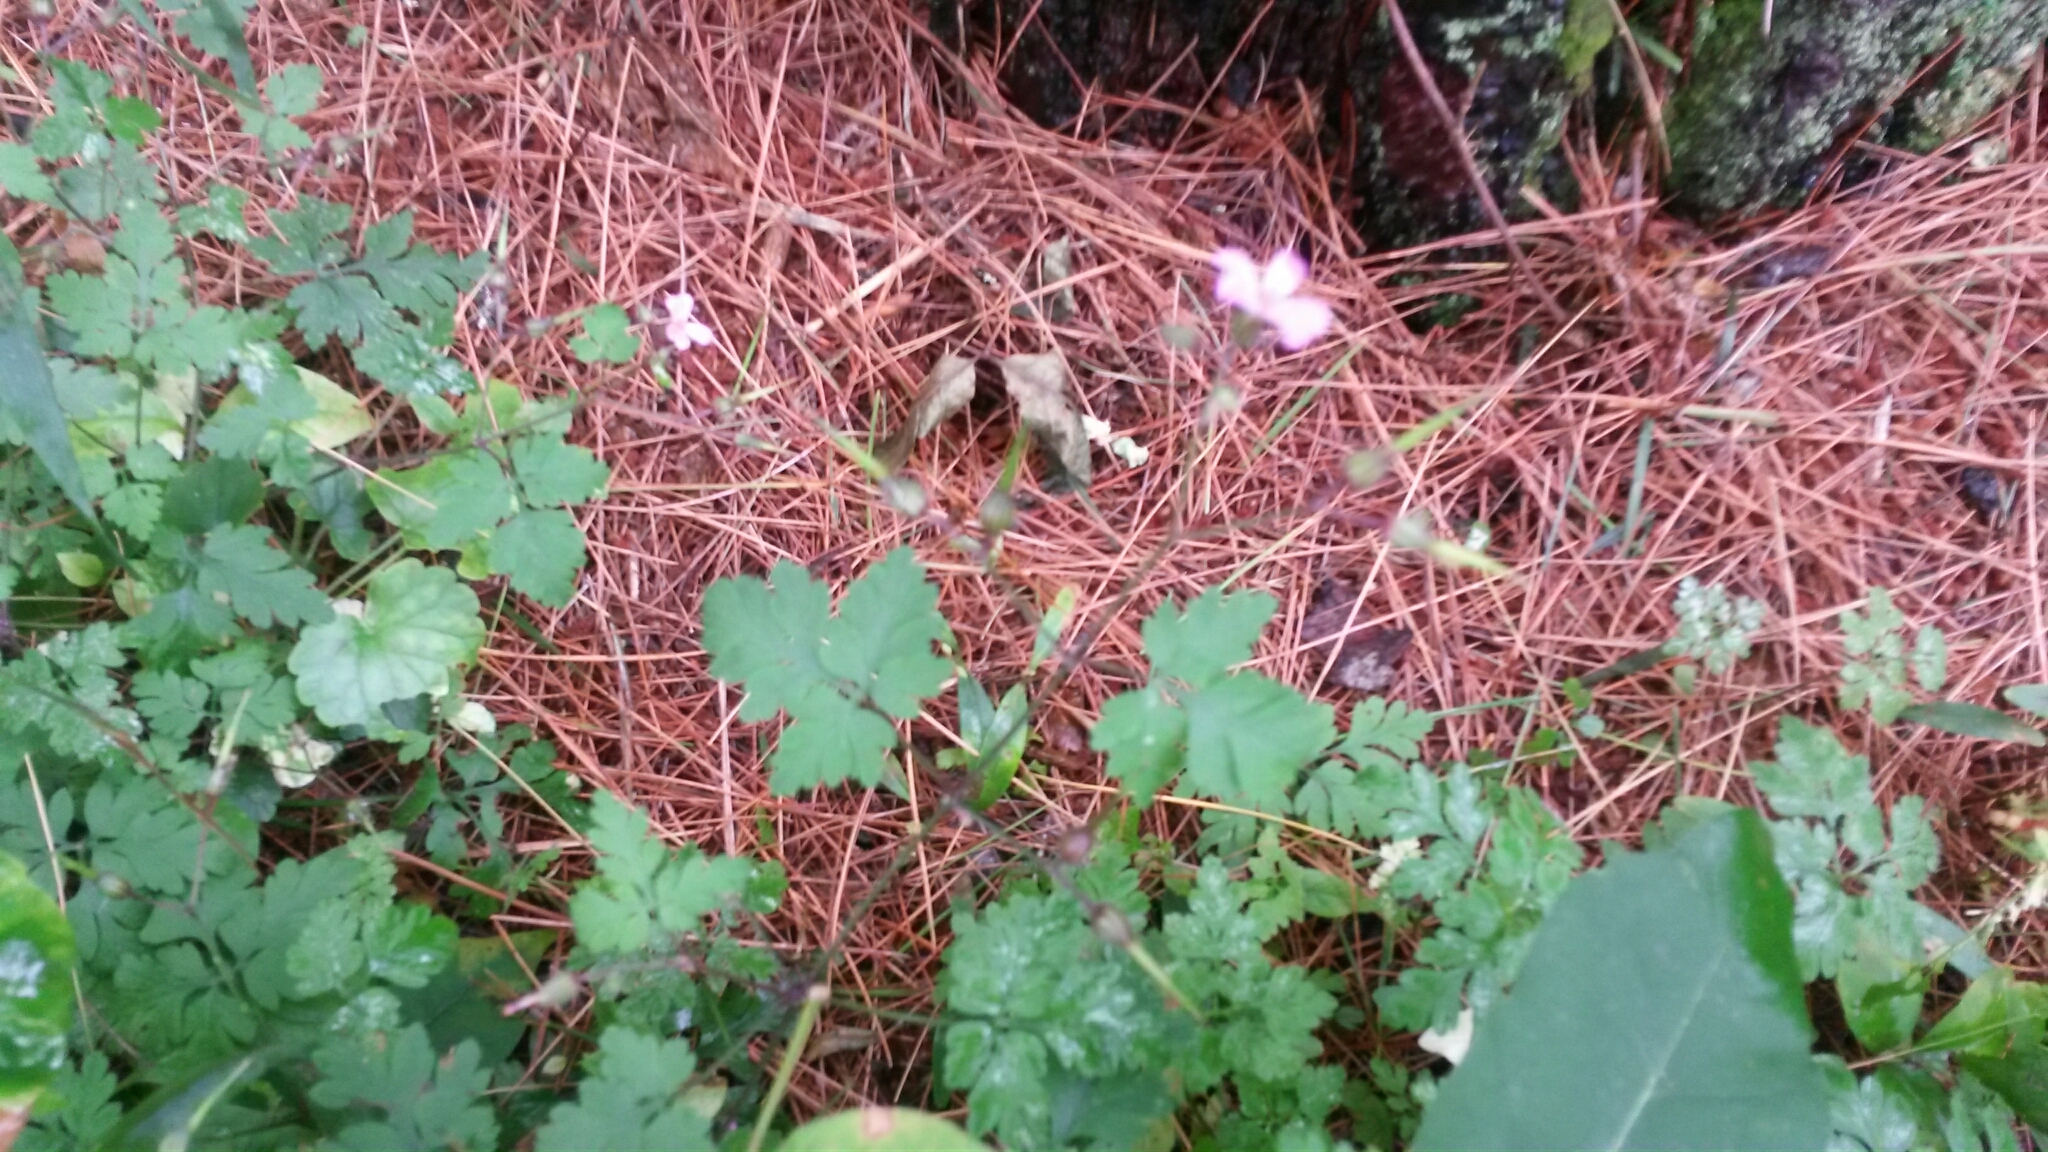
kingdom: Plantae
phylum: Tracheophyta
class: Magnoliopsida
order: Geraniales
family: Geraniaceae
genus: Geranium
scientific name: Geranium robertianum
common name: Herb-robert
